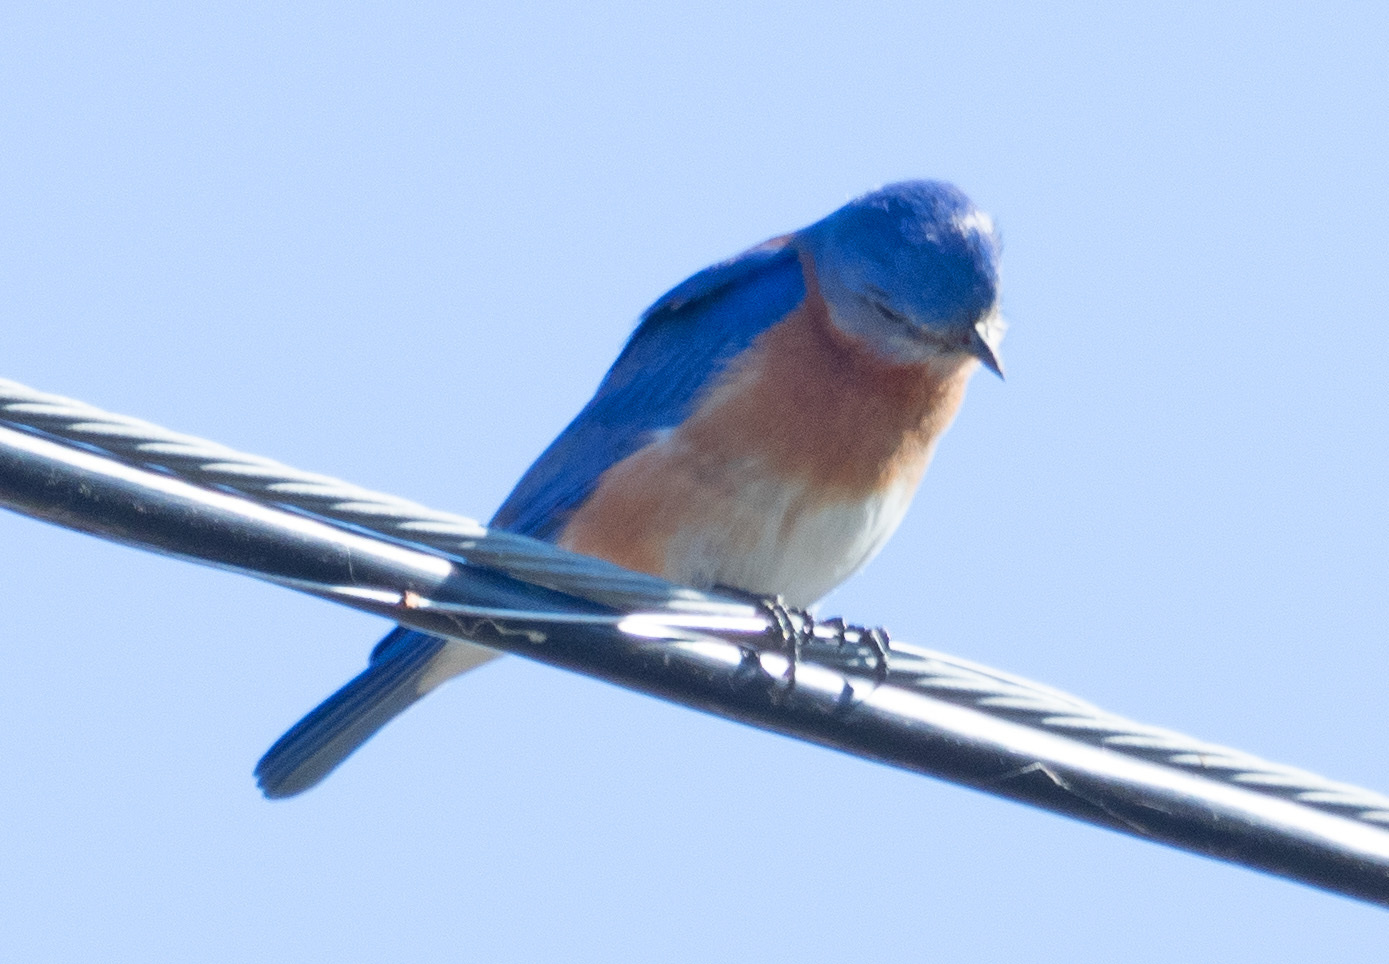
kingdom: Animalia
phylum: Chordata
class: Aves
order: Passeriformes
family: Turdidae
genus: Sialia
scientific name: Sialia sialis
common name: Eastern bluebird
